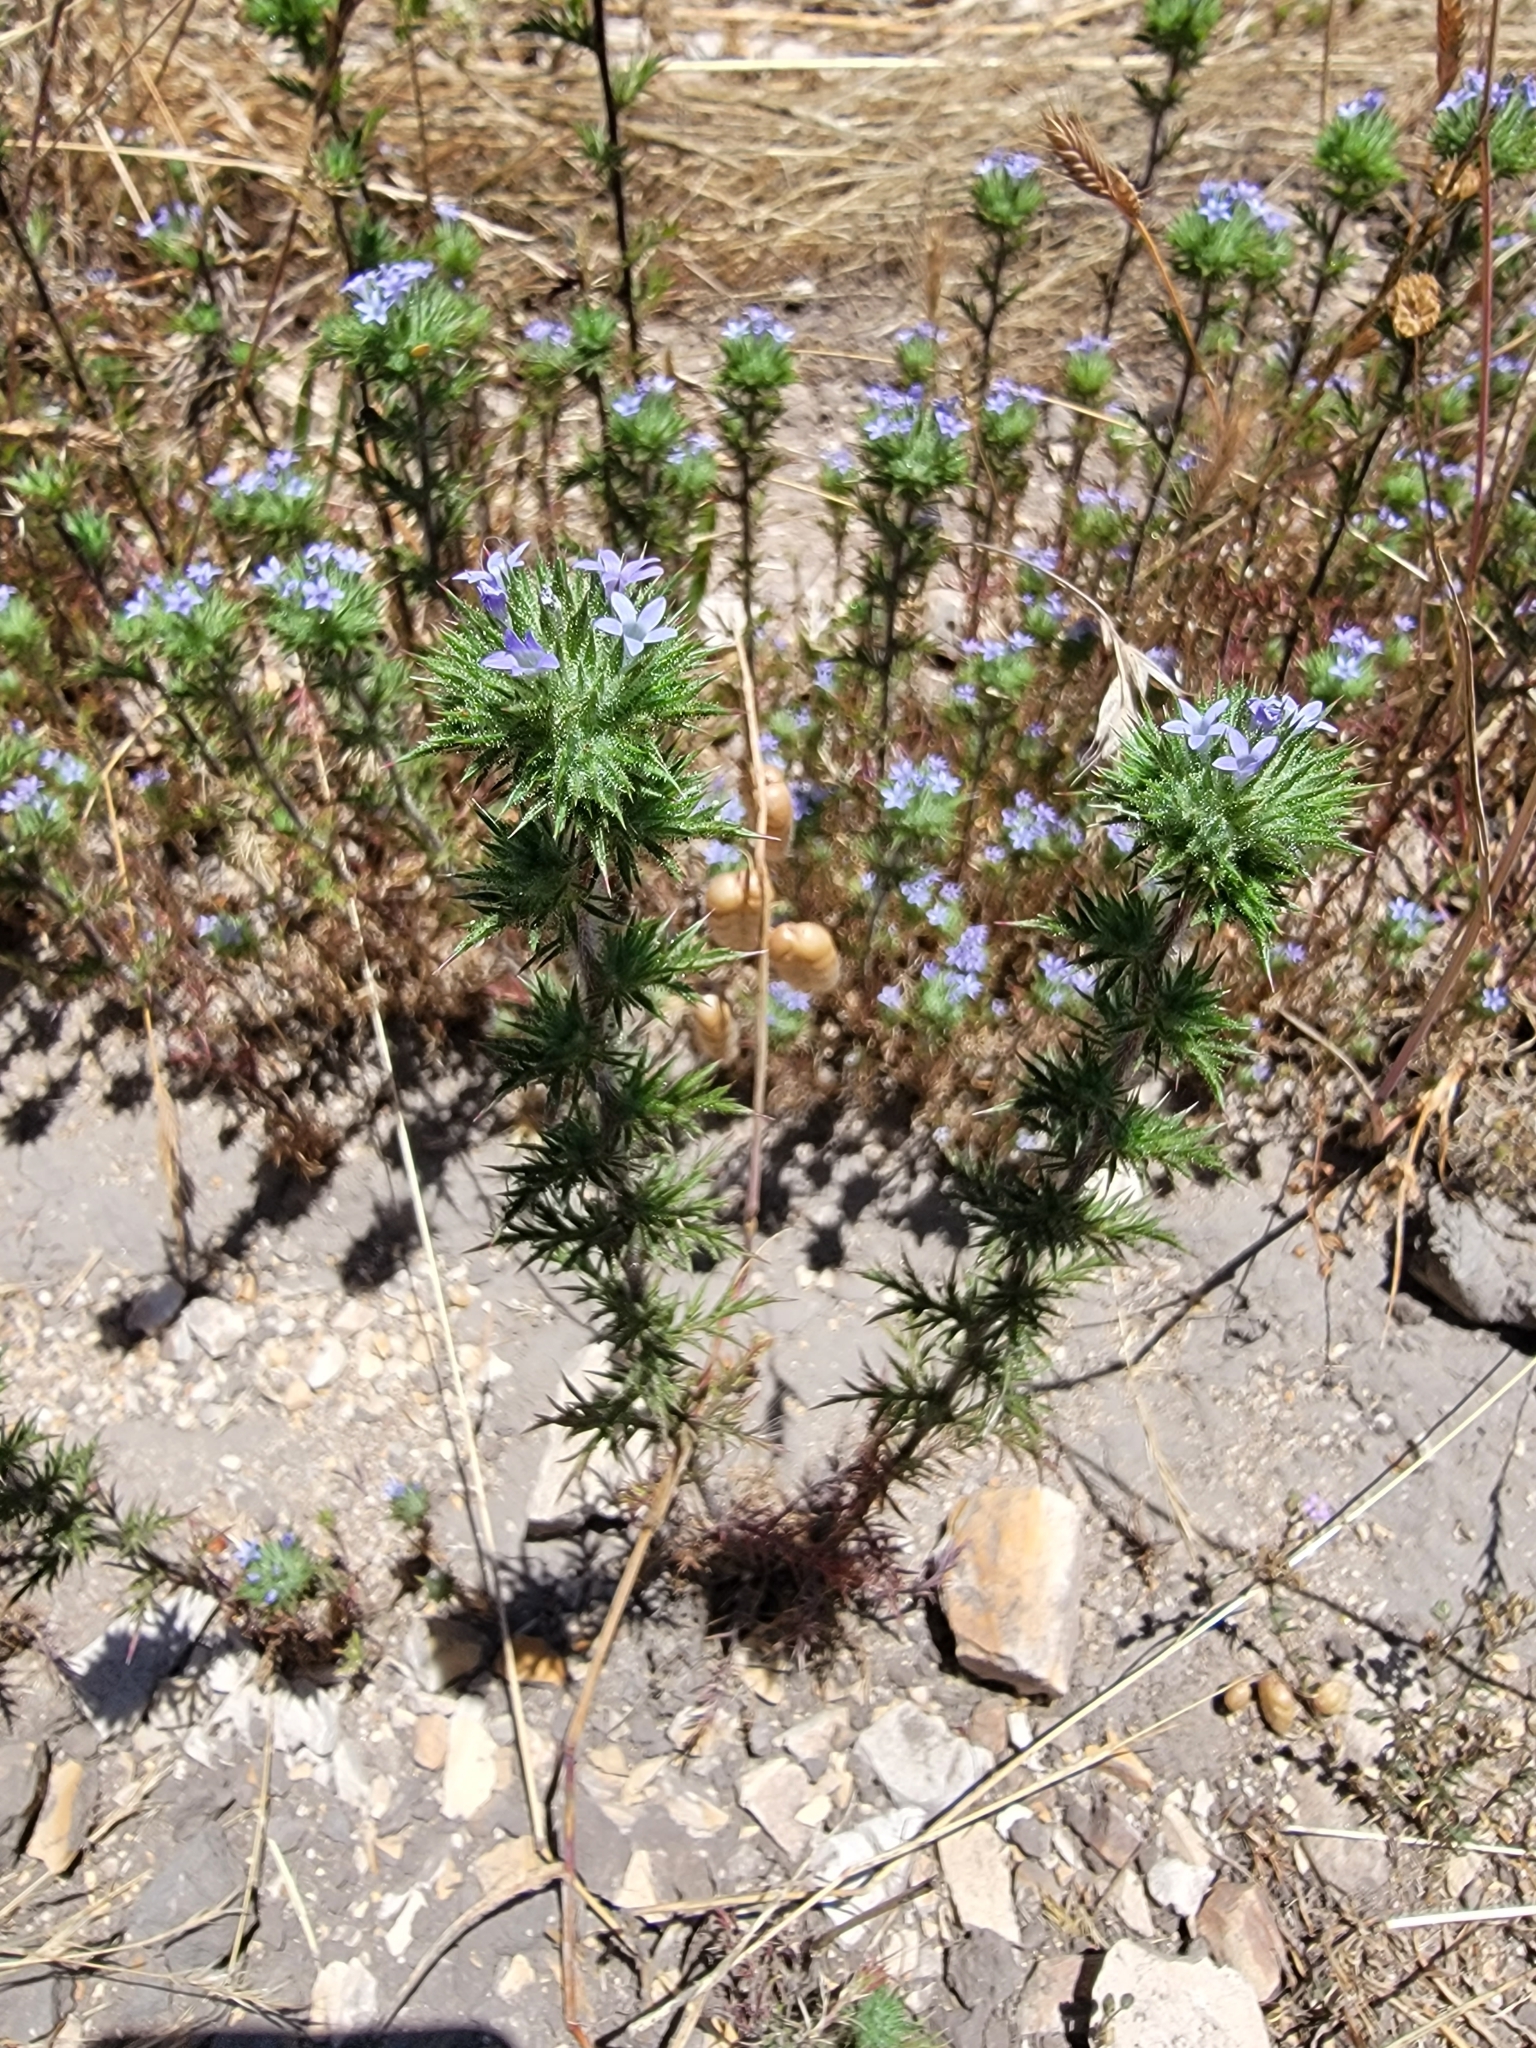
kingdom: Plantae
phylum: Tracheophyta
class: Magnoliopsida
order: Ericales
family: Polemoniaceae
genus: Navarretia
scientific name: Navarretia squarrosa
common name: Skunkweed
